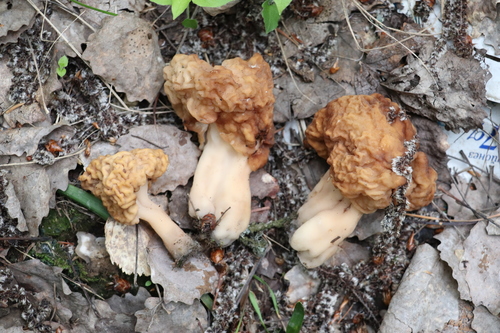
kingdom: Fungi
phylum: Ascomycota
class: Pezizomycetes
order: Pezizales
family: Discinaceae
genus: Gyromitra
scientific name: Gyromitra
